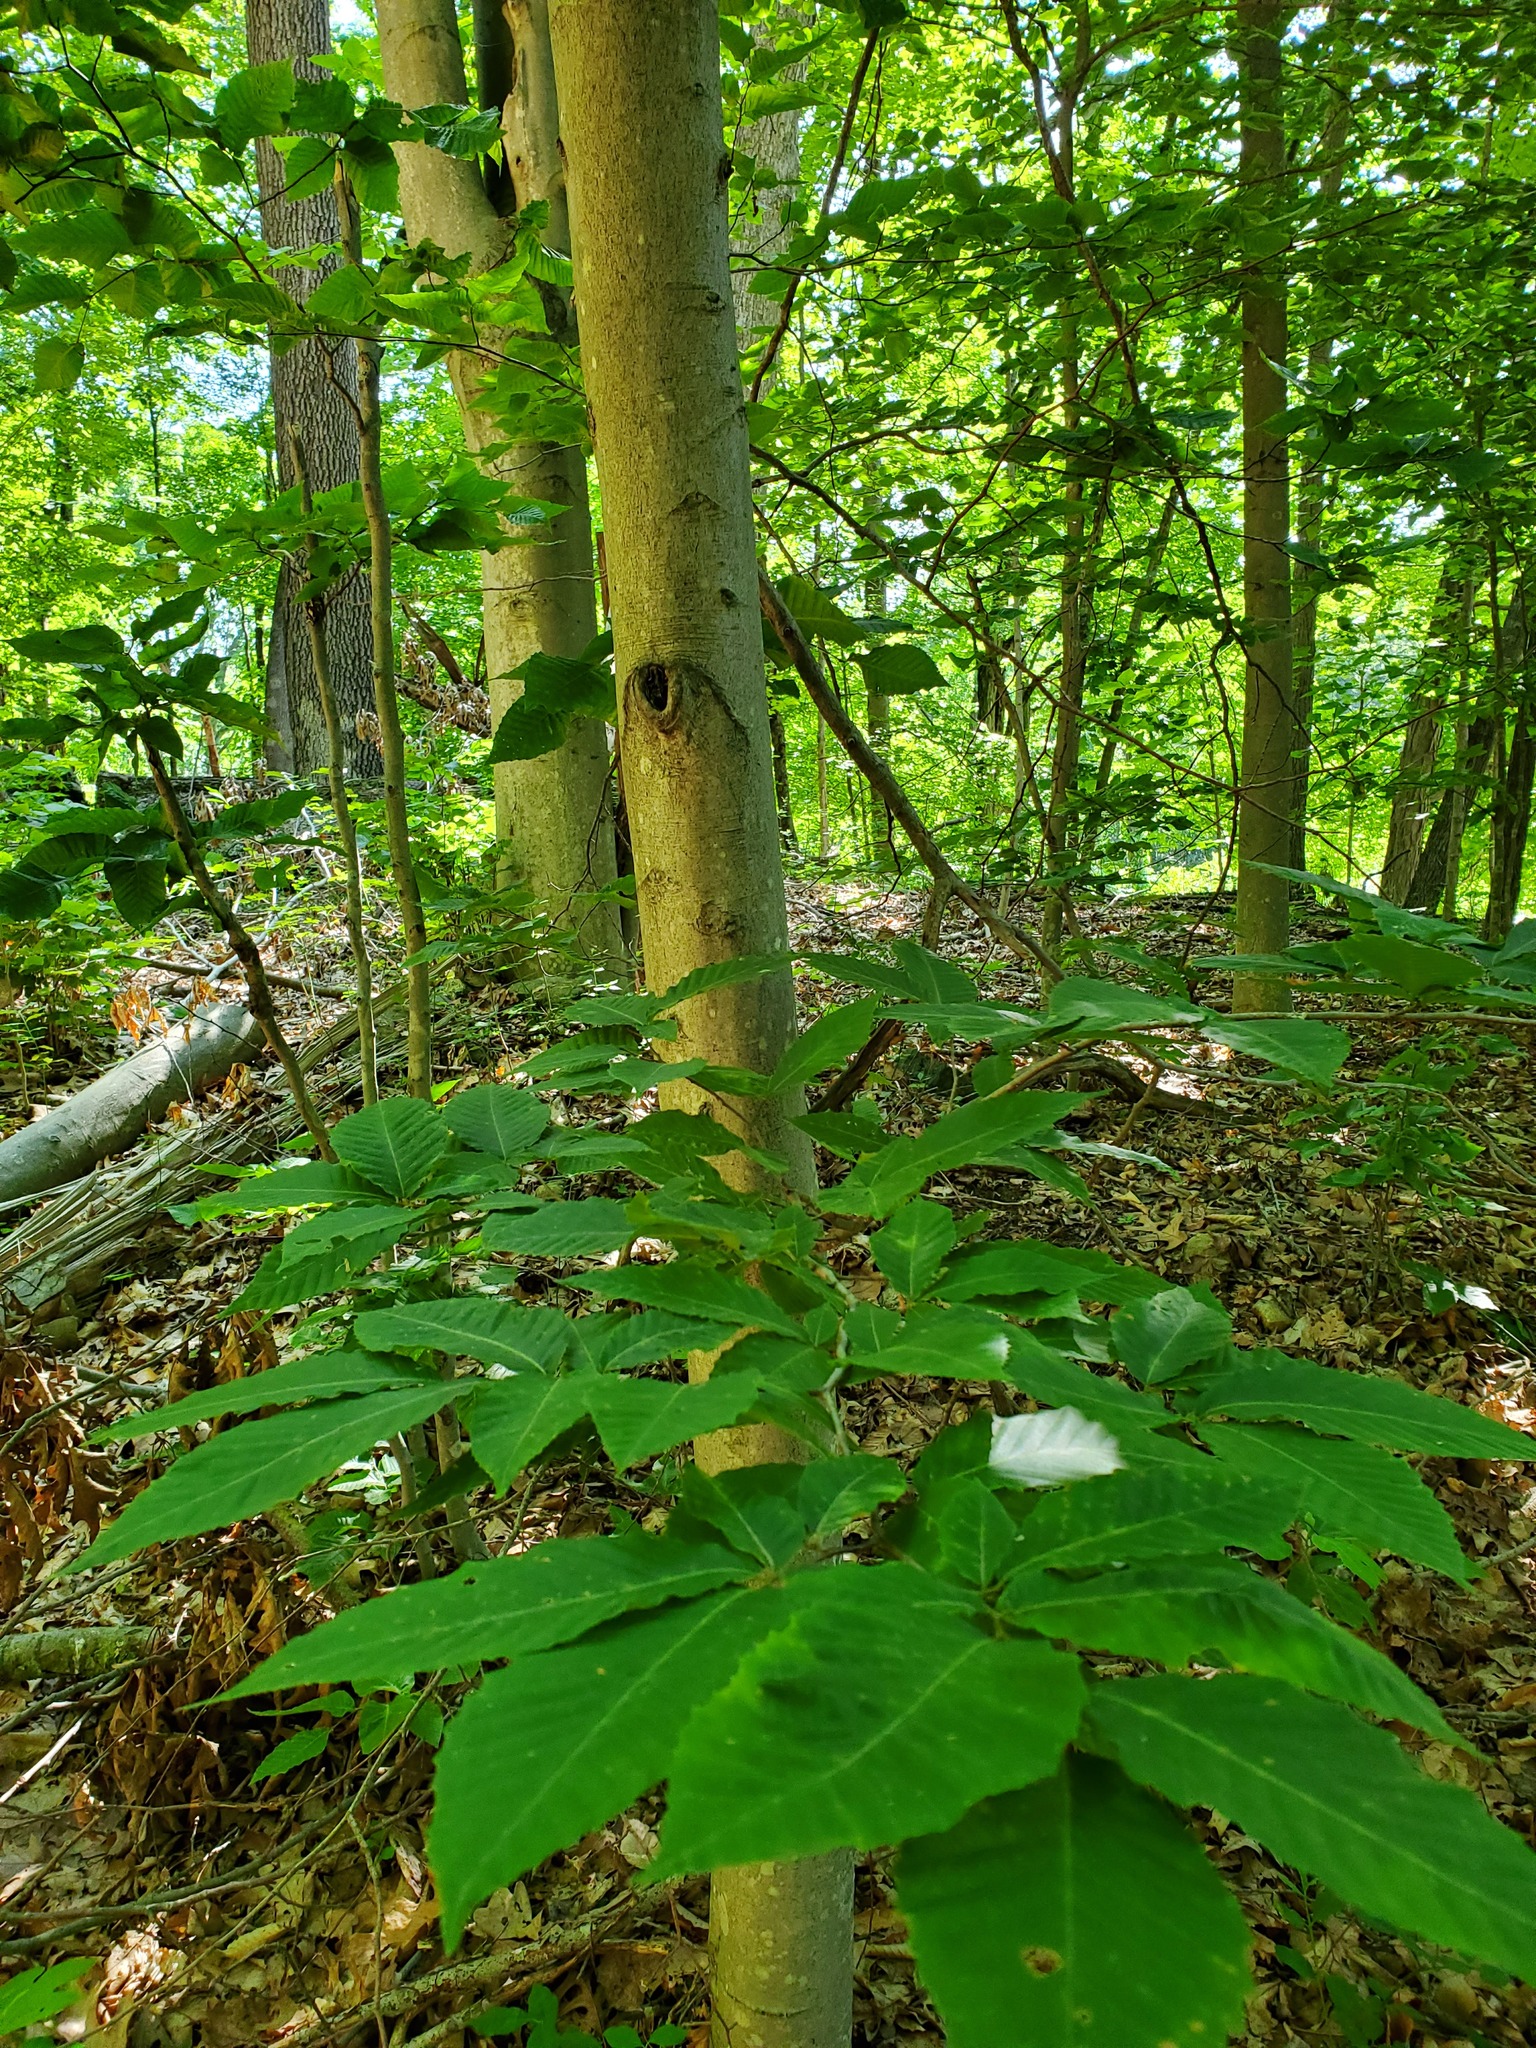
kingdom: Plantae
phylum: Tracheophyta
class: Magnoliopsida
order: Fagales
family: Fagaceae
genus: Fagus
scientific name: Fagus grandifolia
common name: American beech
